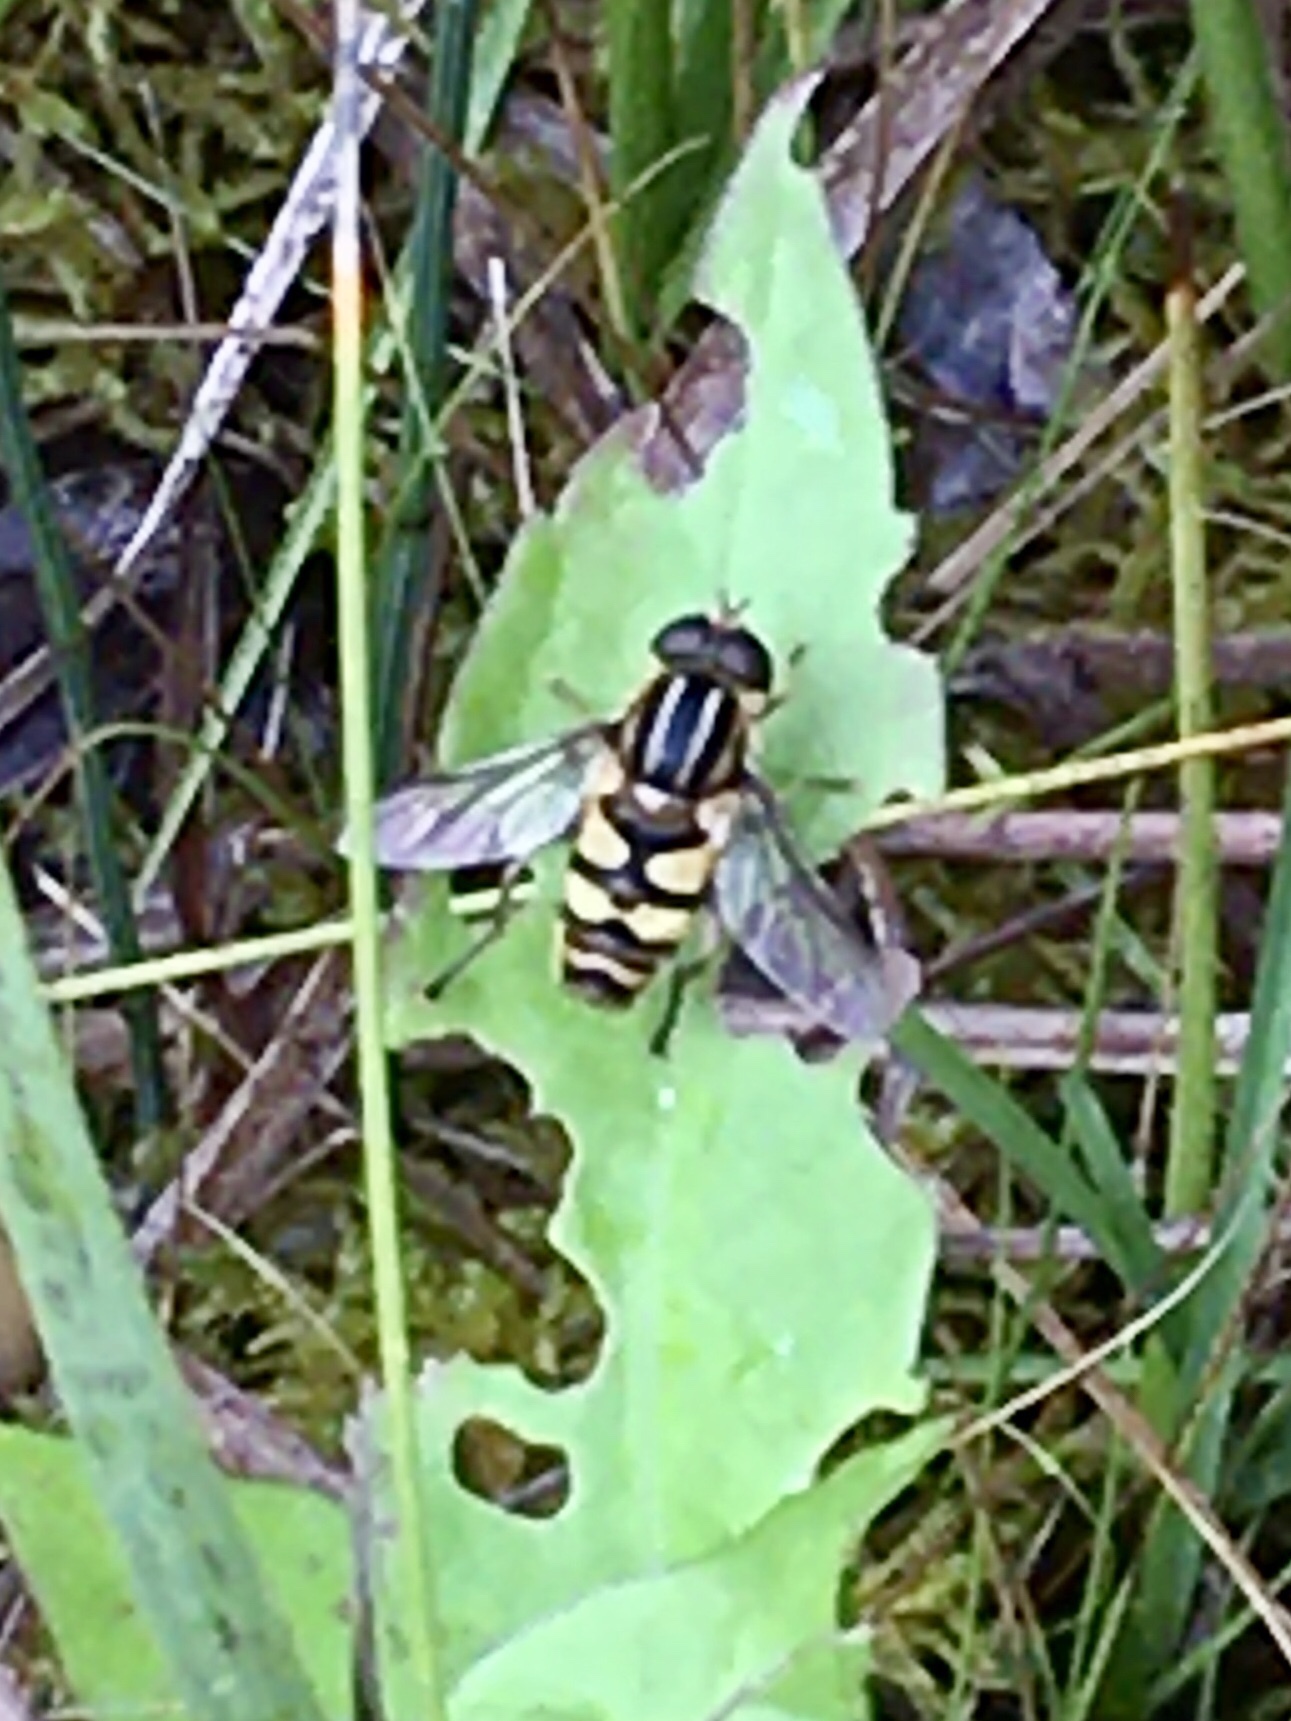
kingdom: Animalia
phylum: Arthropoda
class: Insecta
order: Diptera
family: Syrphidae
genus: Helophilus
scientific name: Helophilus fasciatus
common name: Narrow-headed marsh fly
